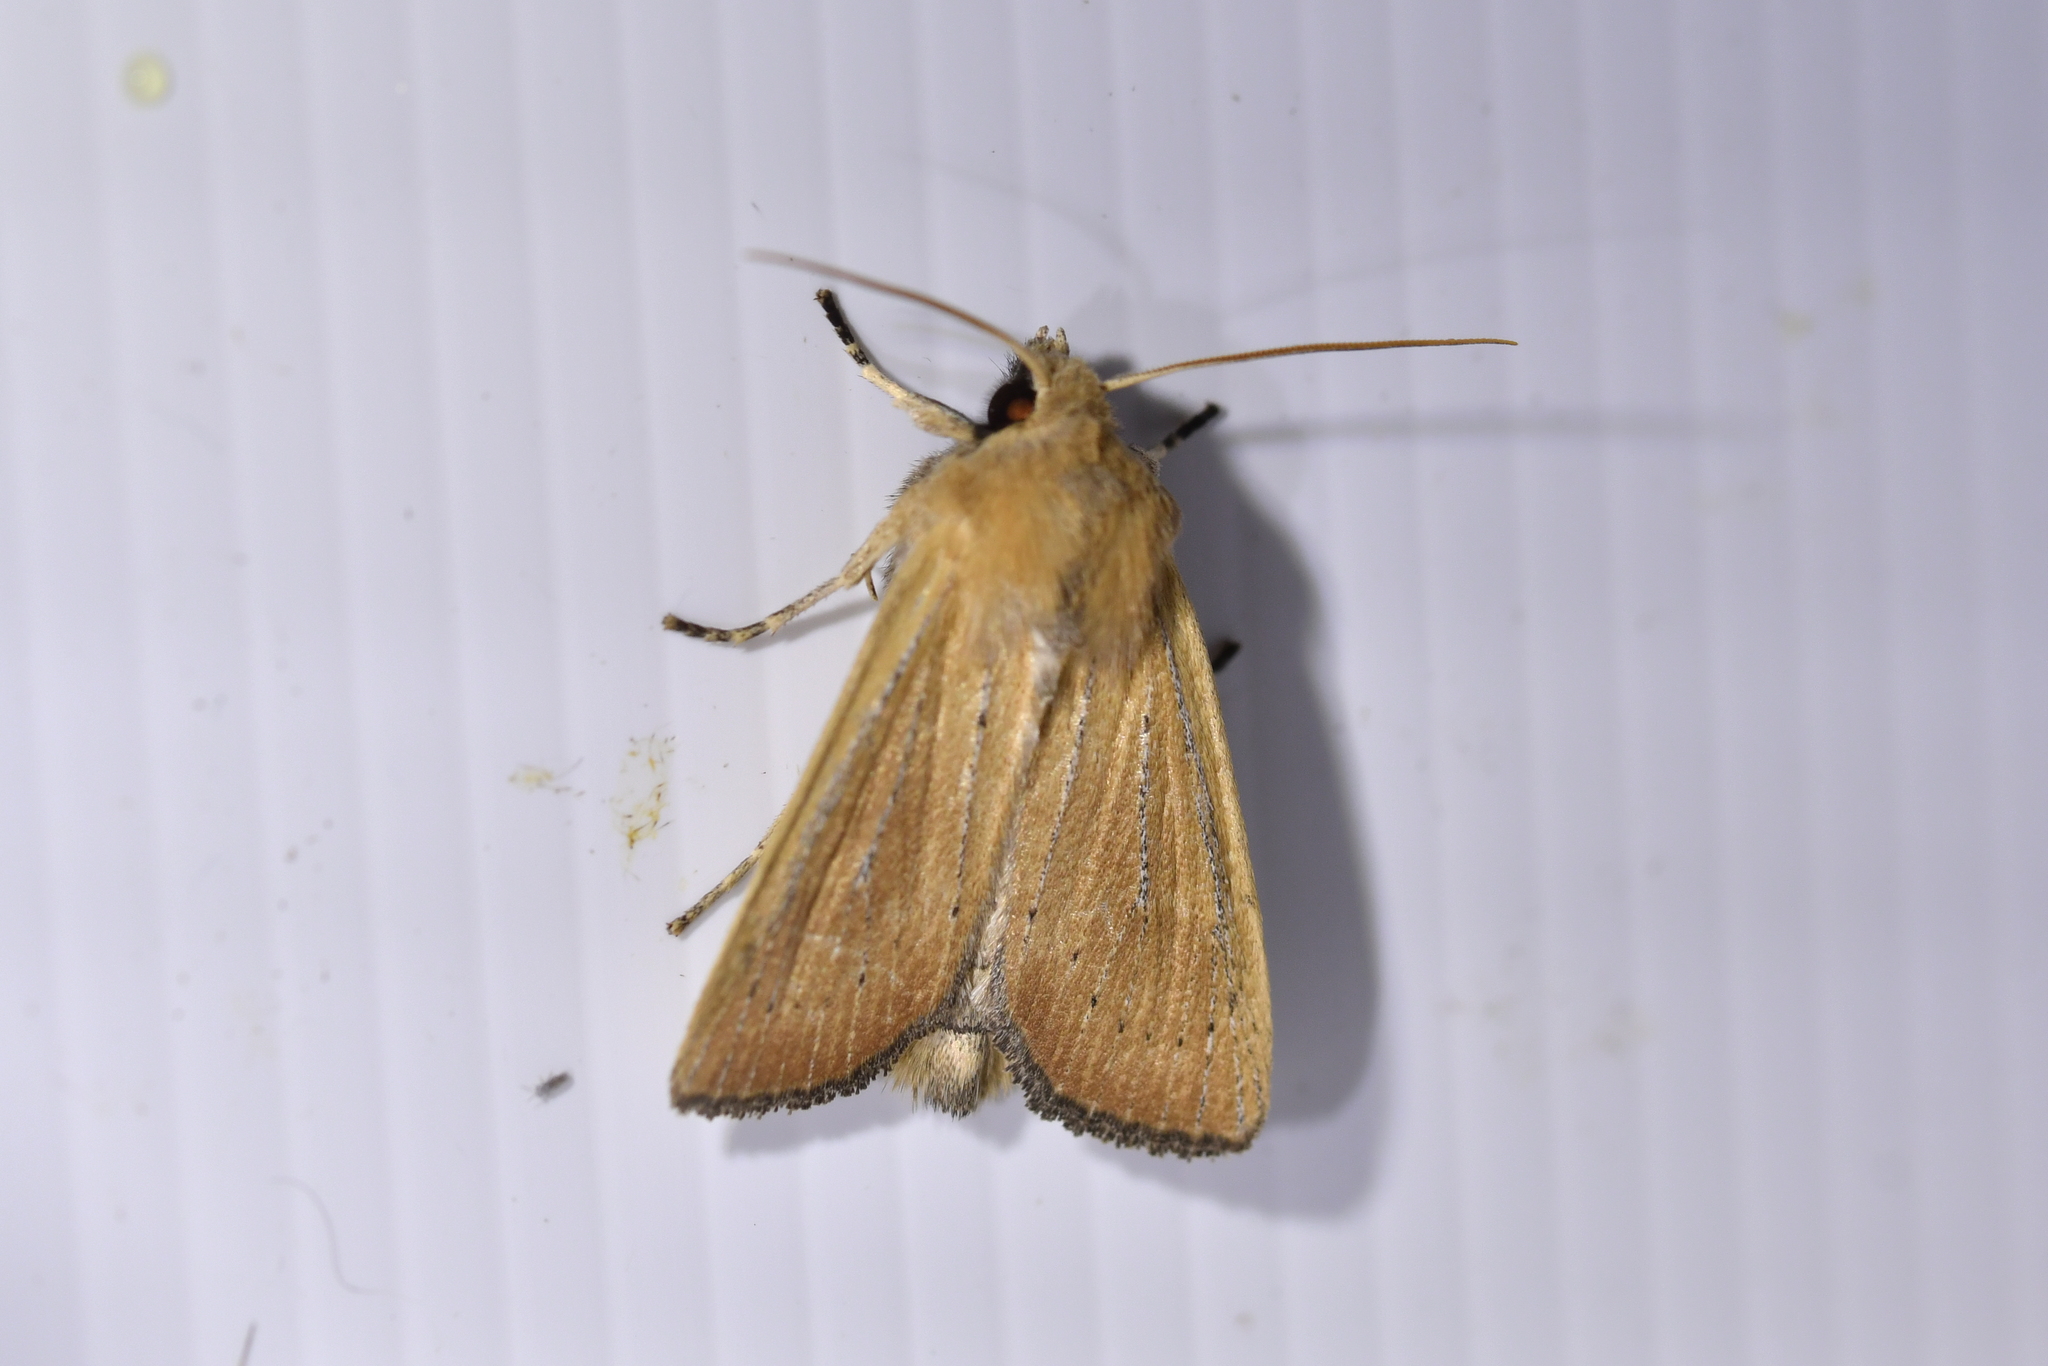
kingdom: Animalia
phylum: Arthropoda
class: Insecta
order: Lepidoptera
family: Noctuidae
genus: Ichneutica
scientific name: Ichneutica blenheimensis
